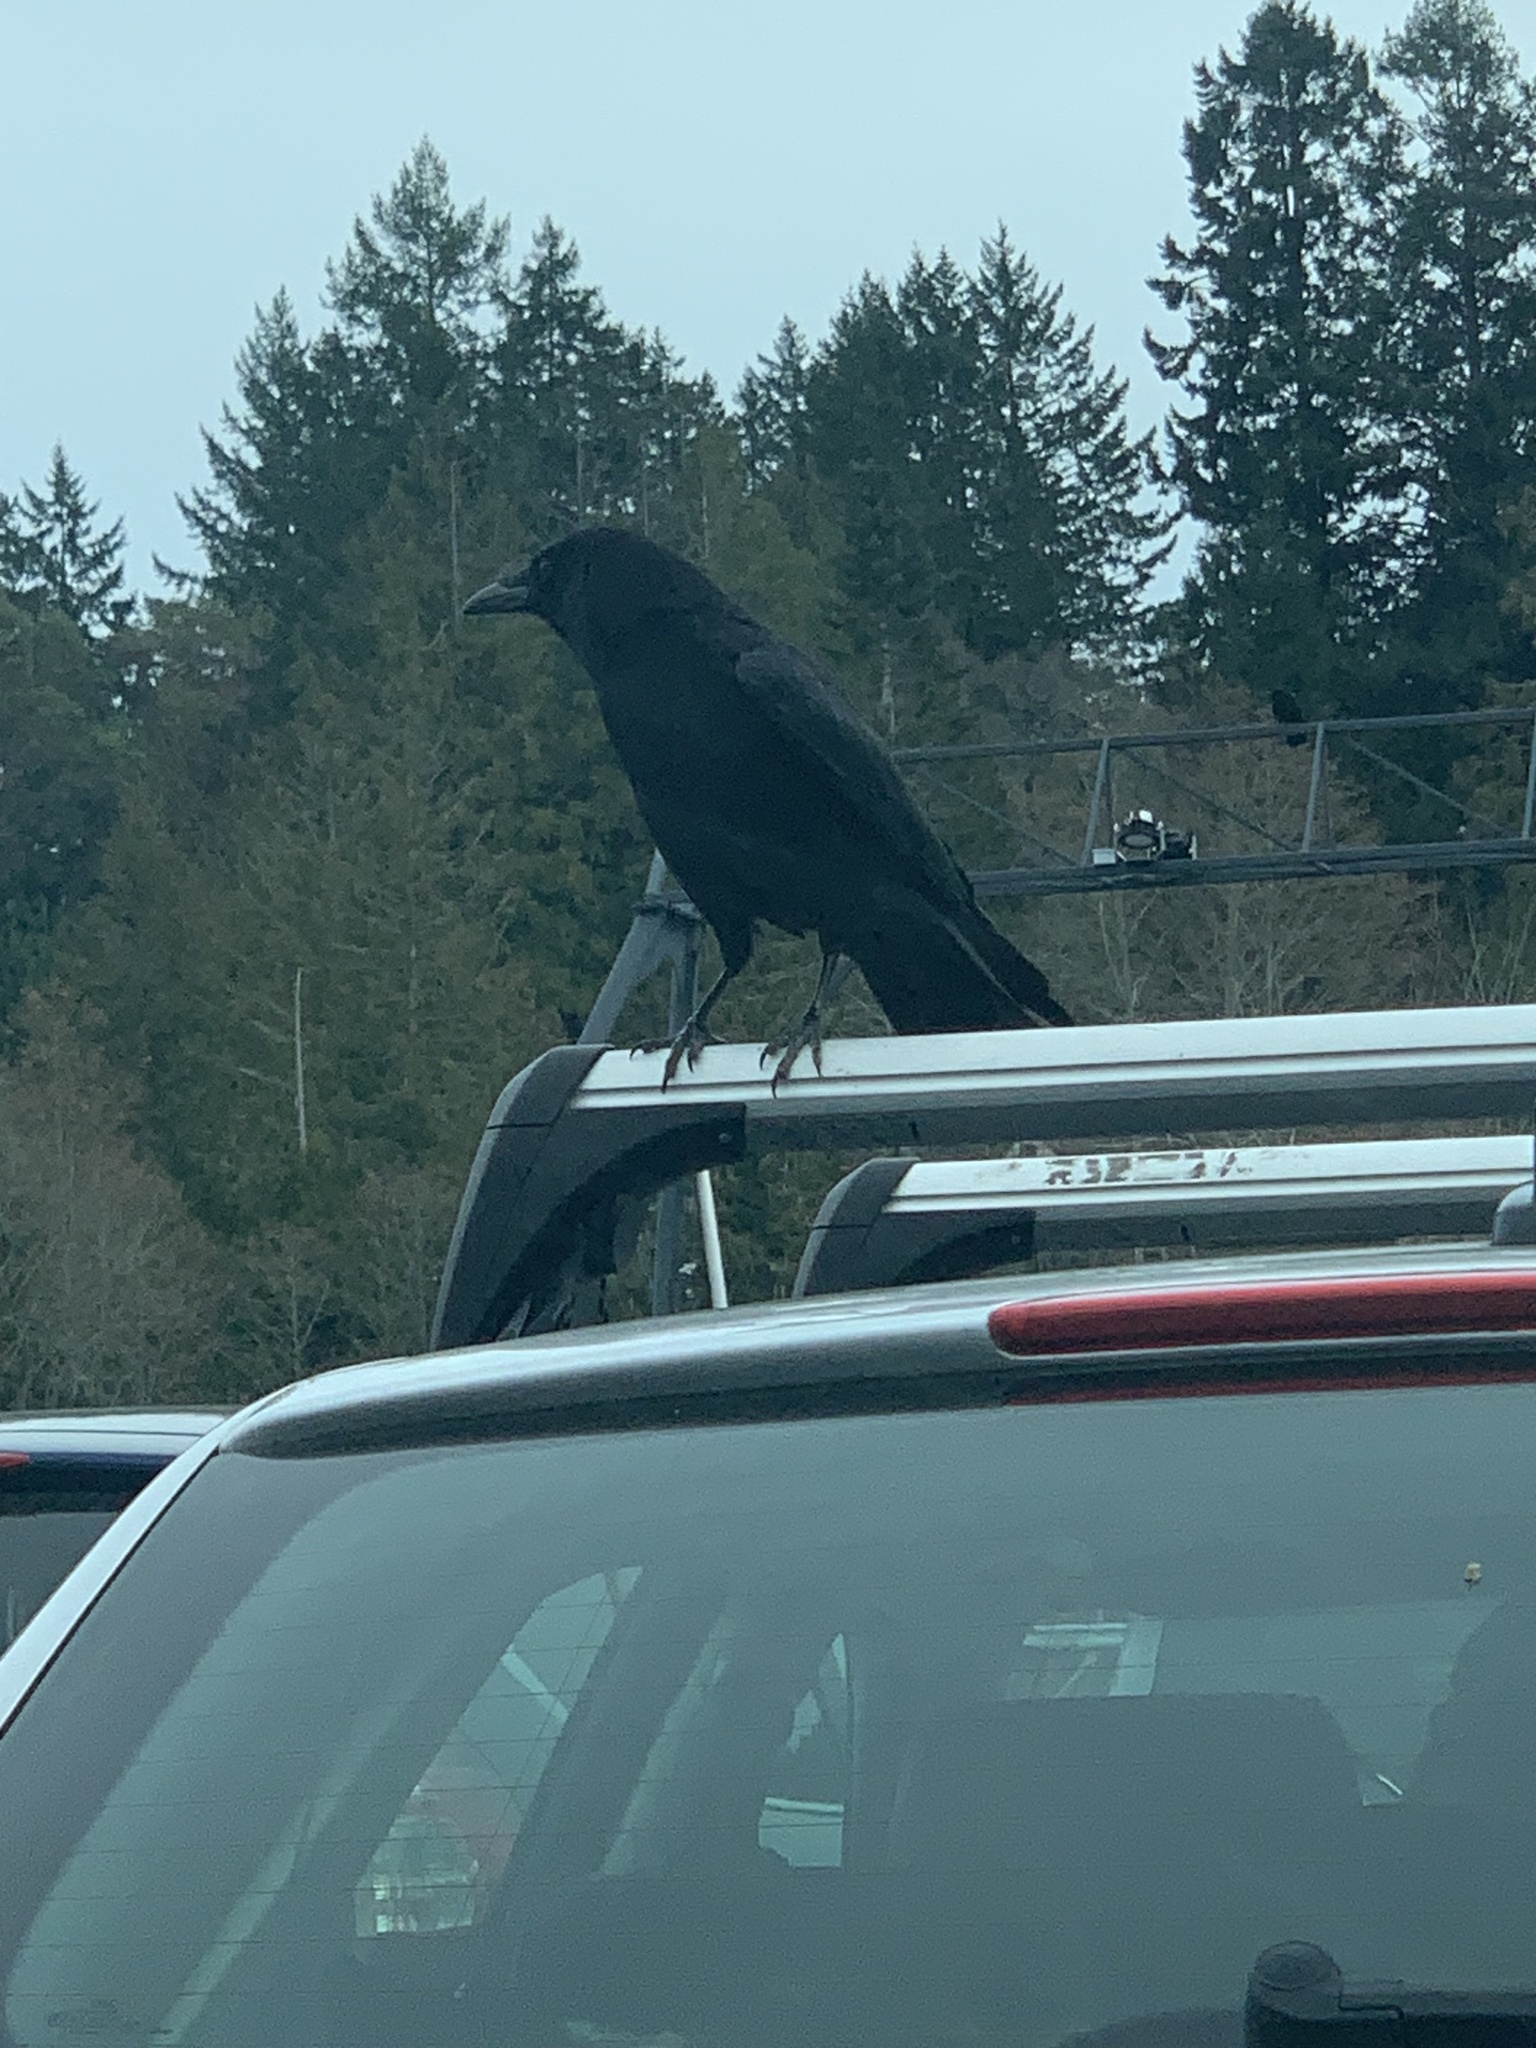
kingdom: Animalia
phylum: Chordata
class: Aves
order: Passeriformes
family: Corvidae
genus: Corvus
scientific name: Corvus brachyrhynchos
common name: American crow
